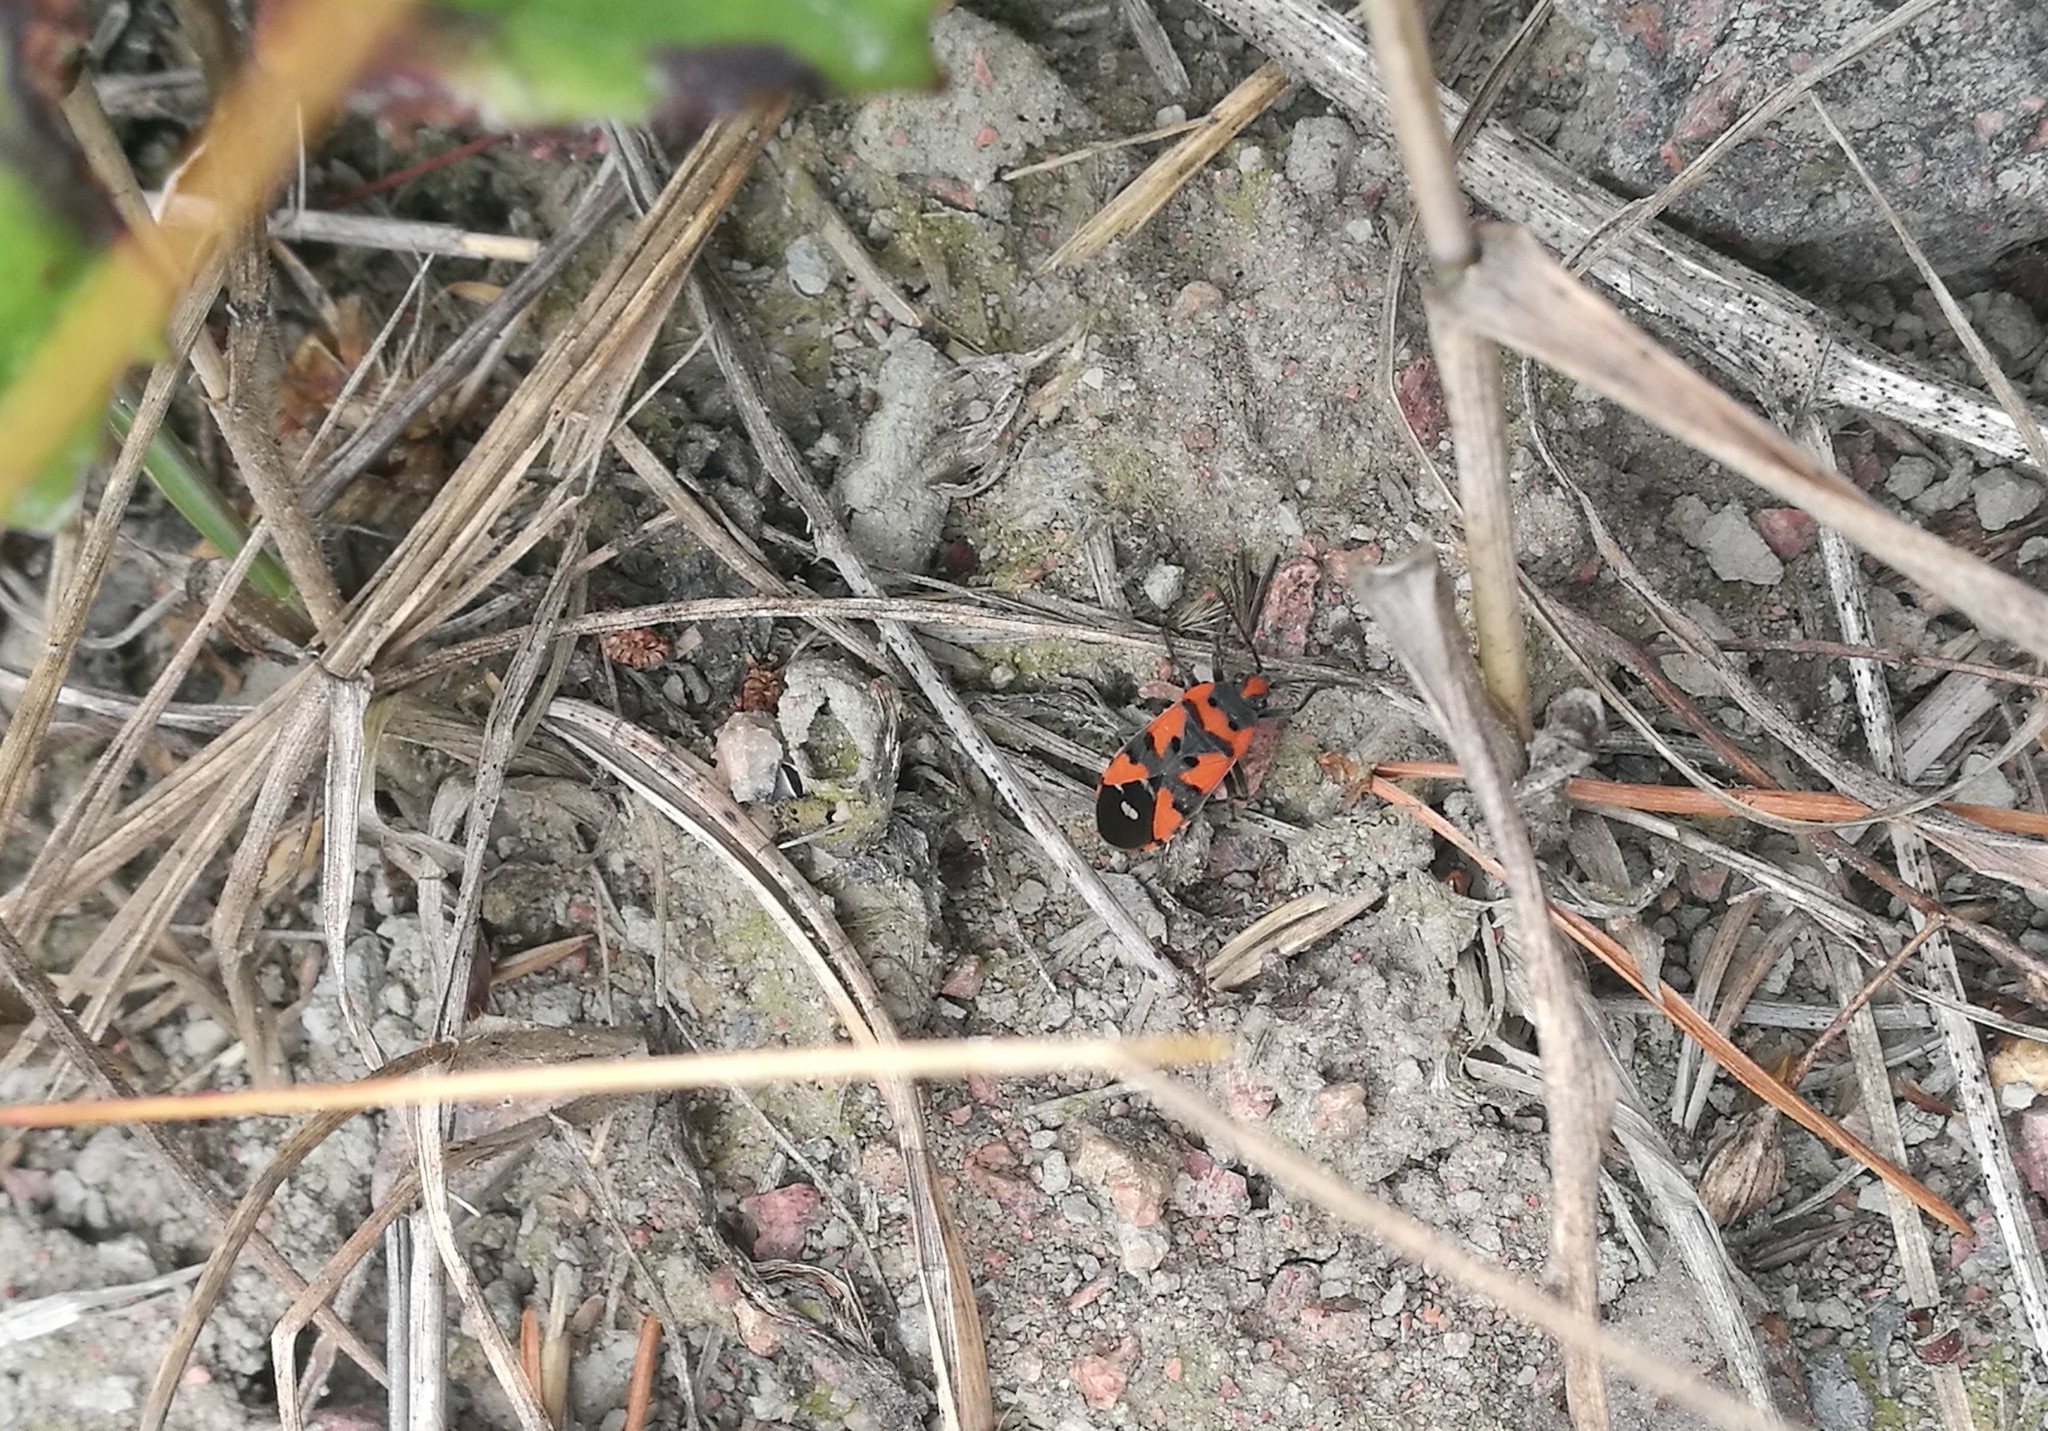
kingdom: Animalia
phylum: Arthropoda
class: Insecta
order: Hemiptera
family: Lygaeidae
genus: Lygaeus
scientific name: Lygaeus equestris
